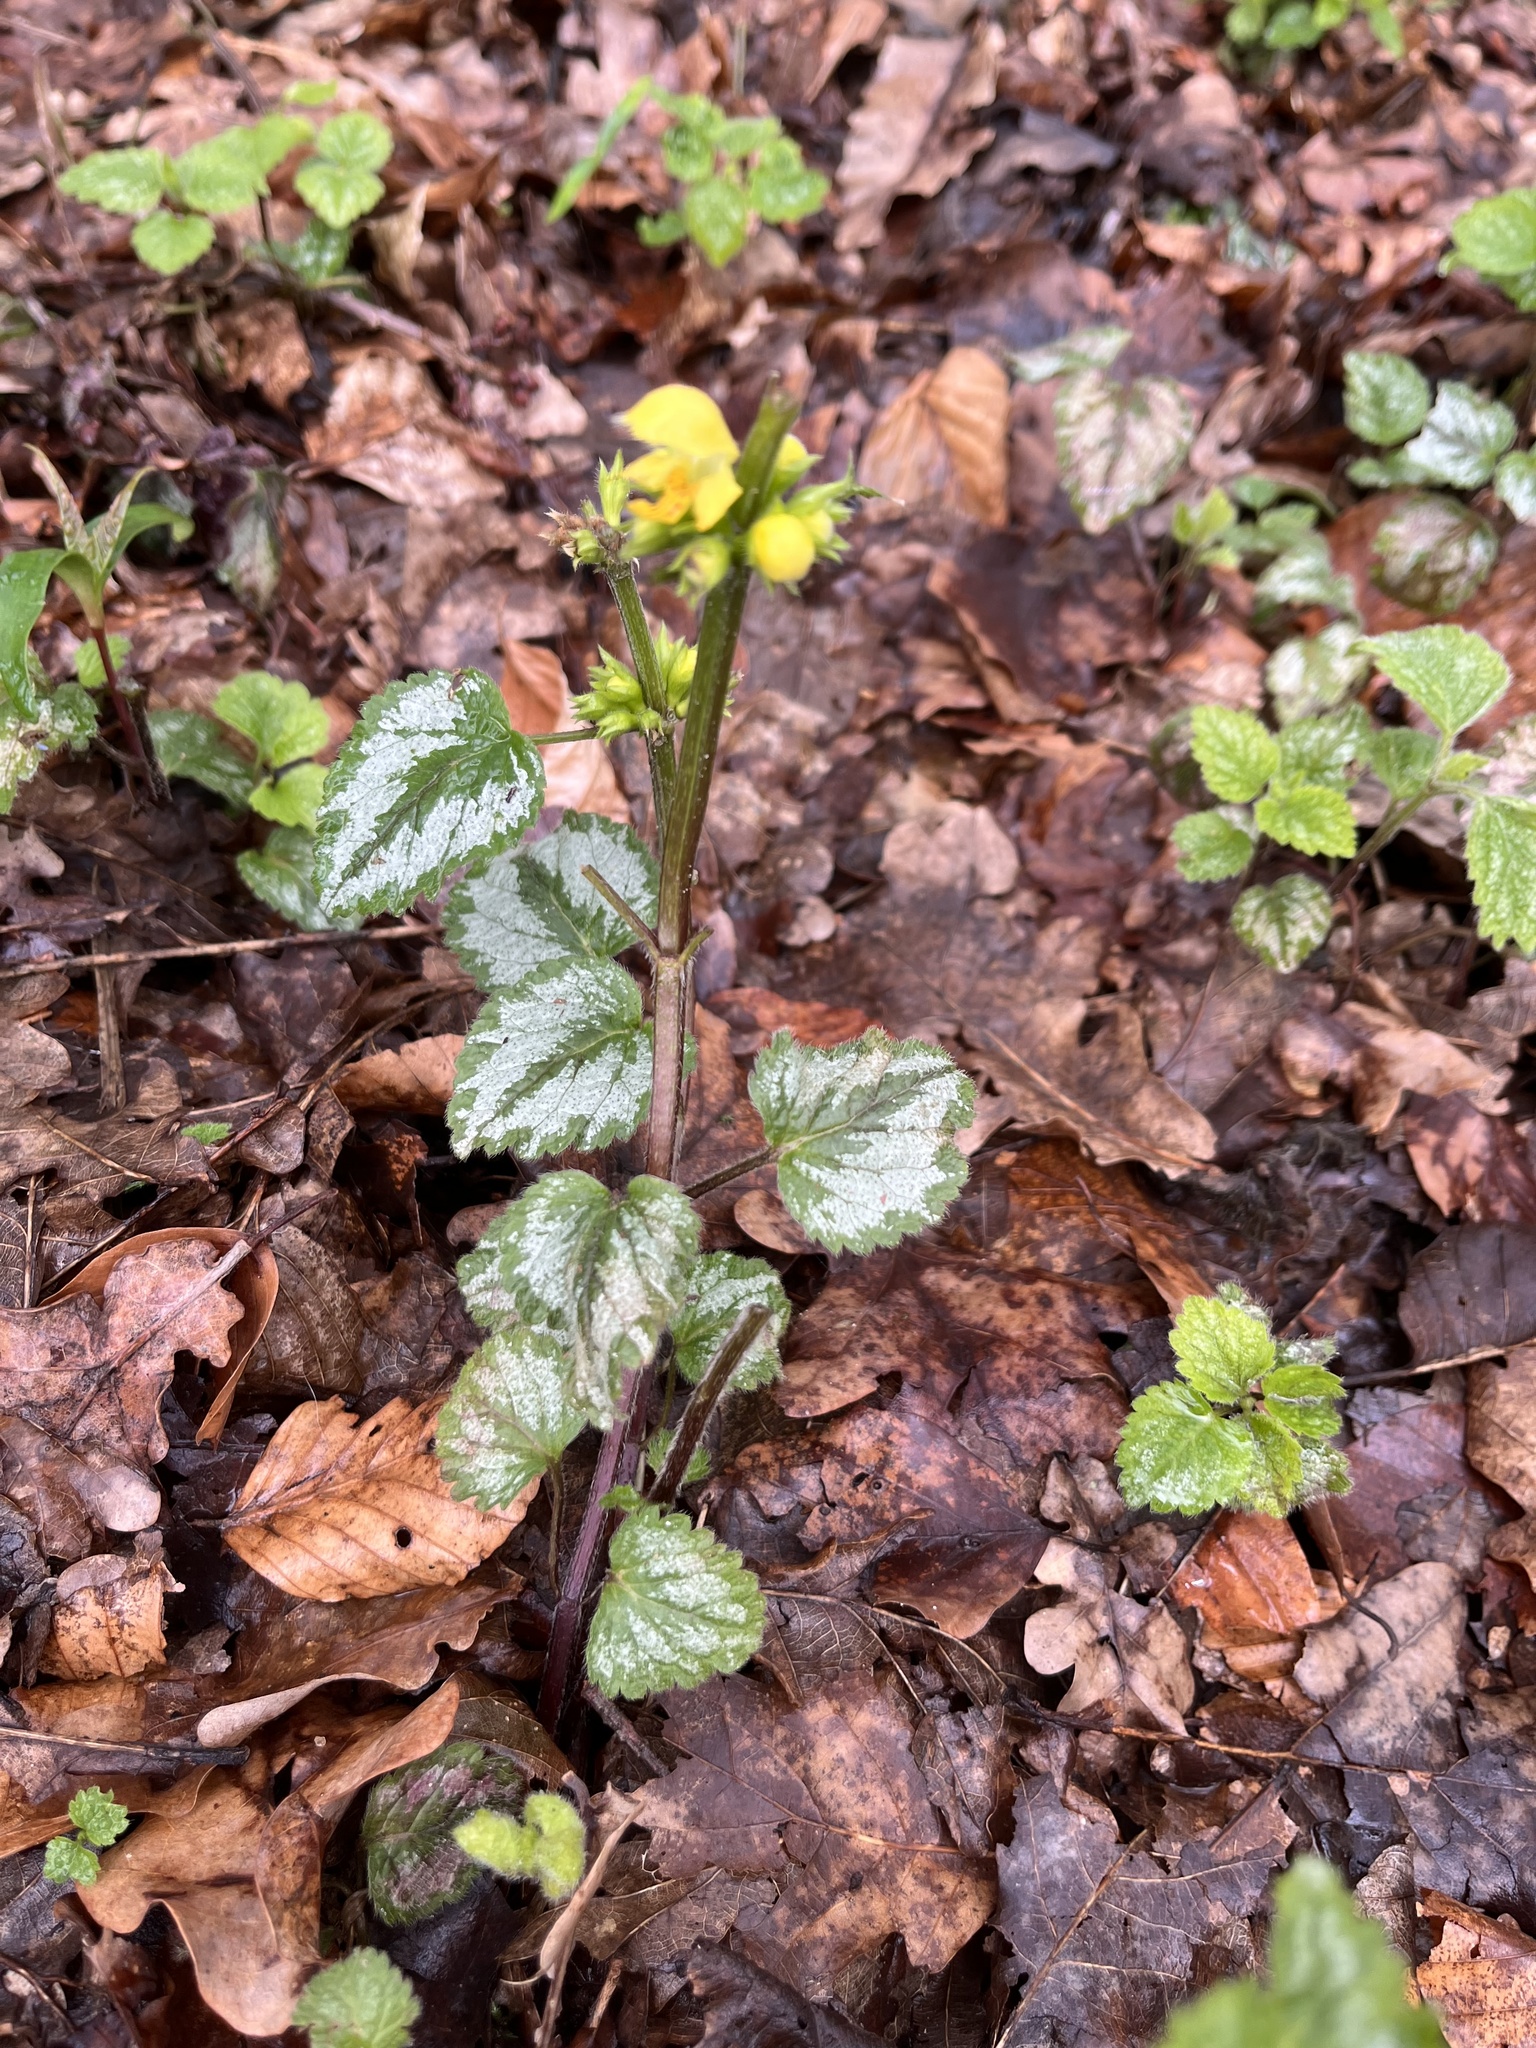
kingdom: Plantae
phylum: Tracheophyta
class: Magnoliopsida
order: Lamiales
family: Lamiaceae
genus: Lamium
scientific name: Lamium galeobdolon
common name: Yellow archangel
